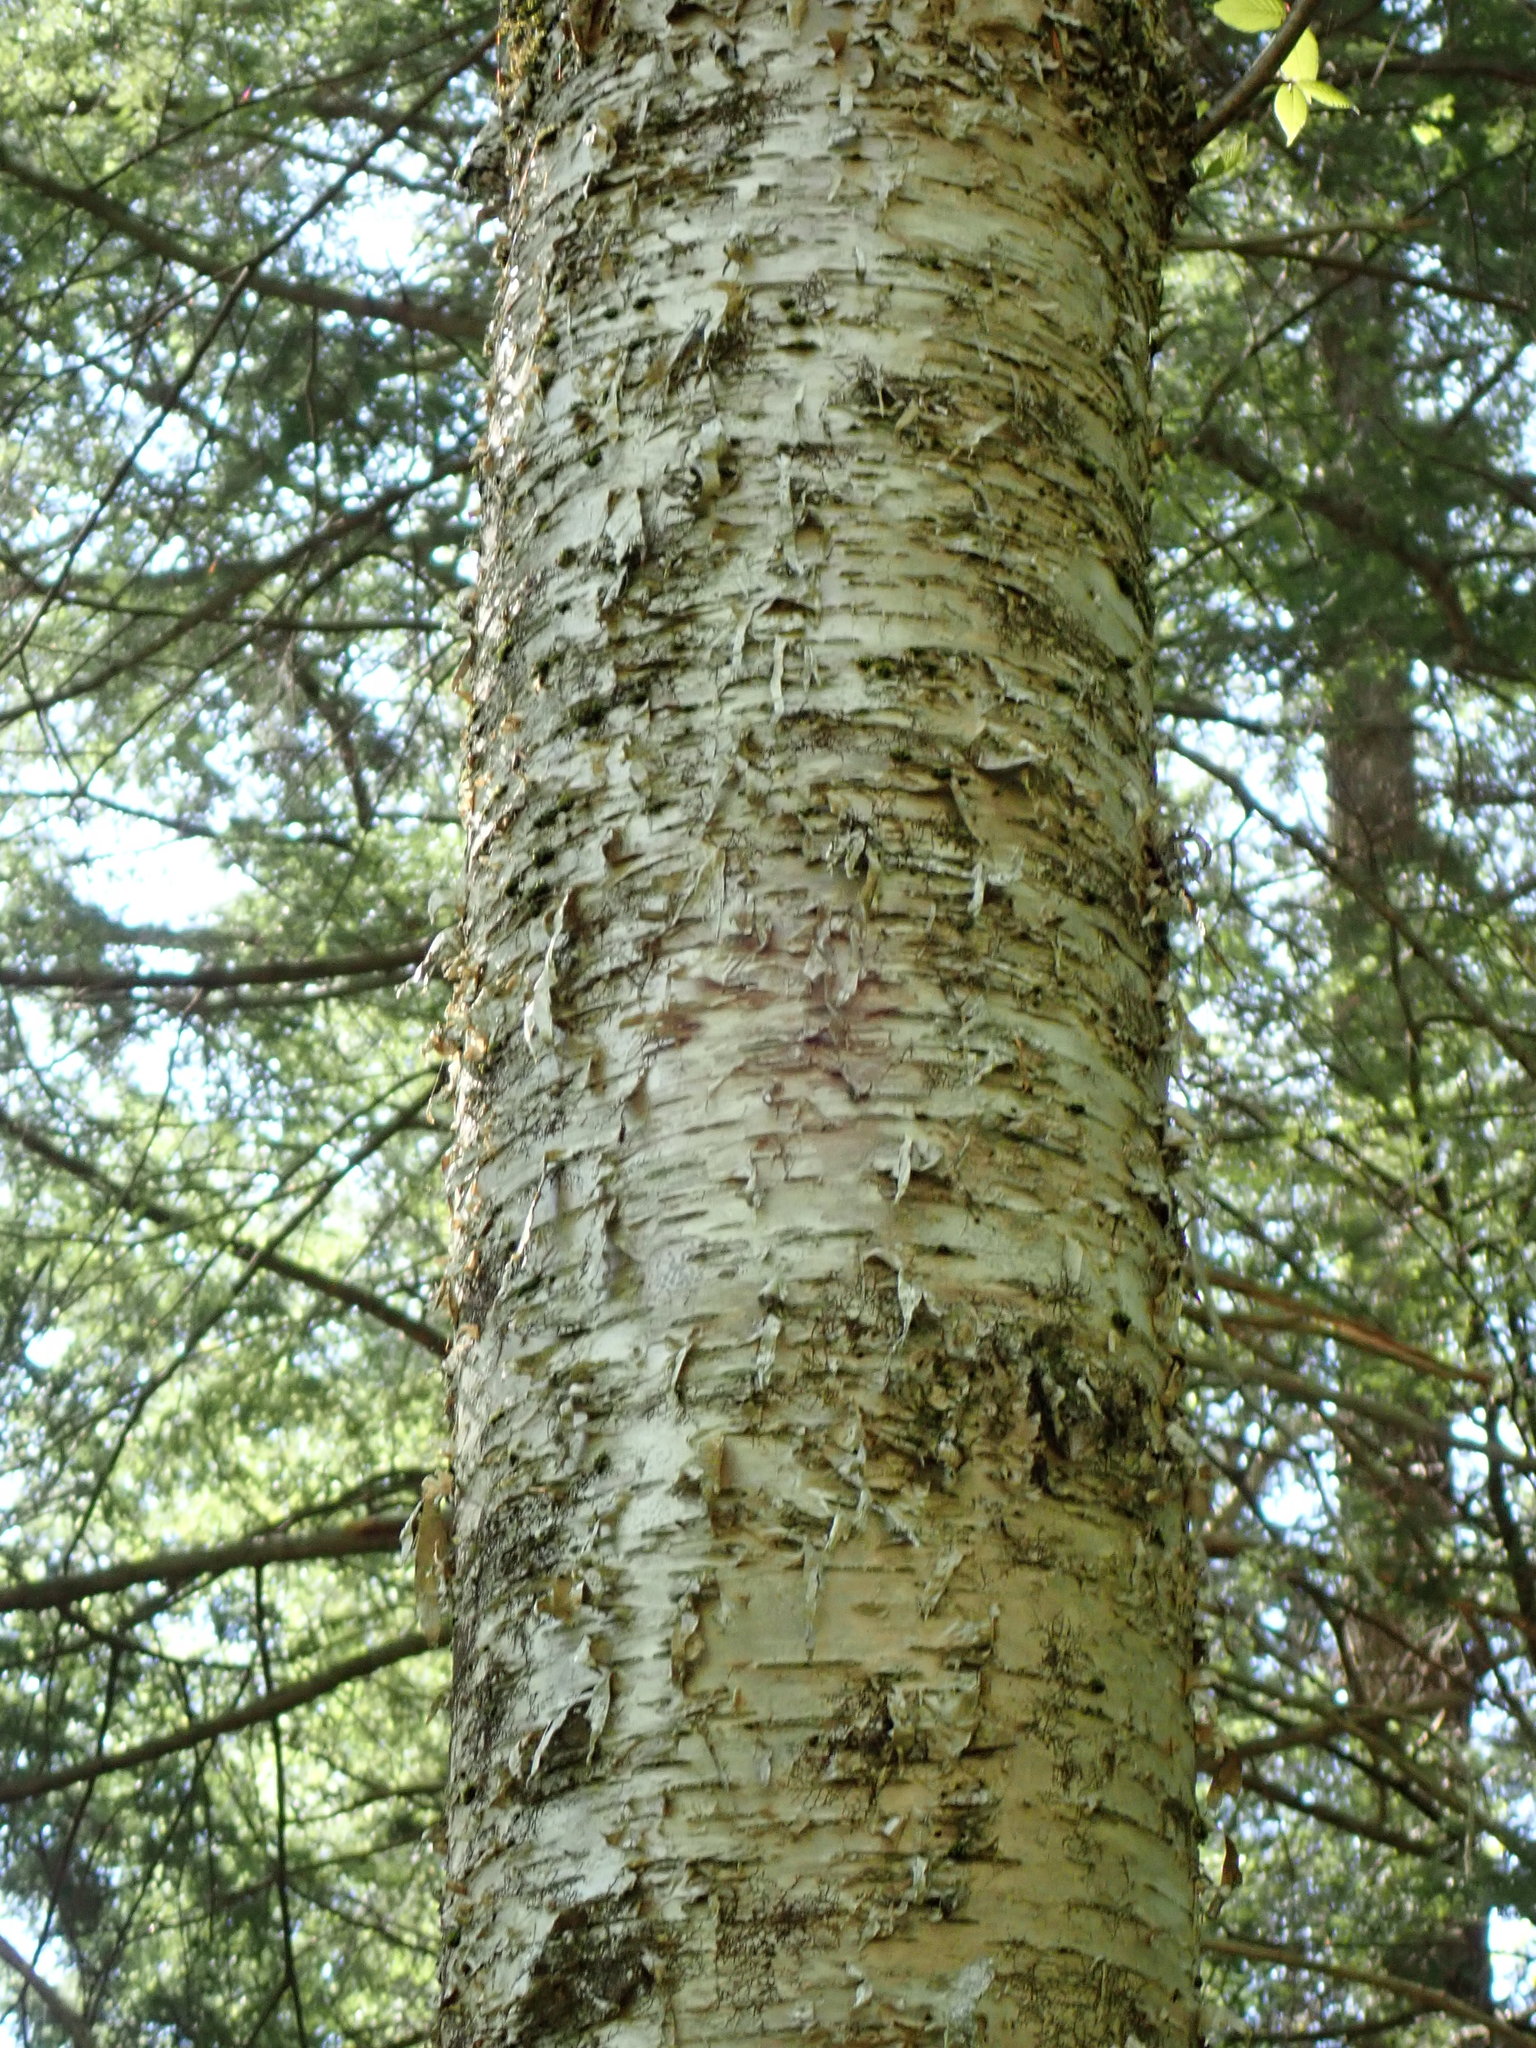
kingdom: Plantae
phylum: Tracheophyta
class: Magnoliopsida
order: Fagales
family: Betulaceae
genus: Betula
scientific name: Betula alleghaniensis
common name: Yellow birch
